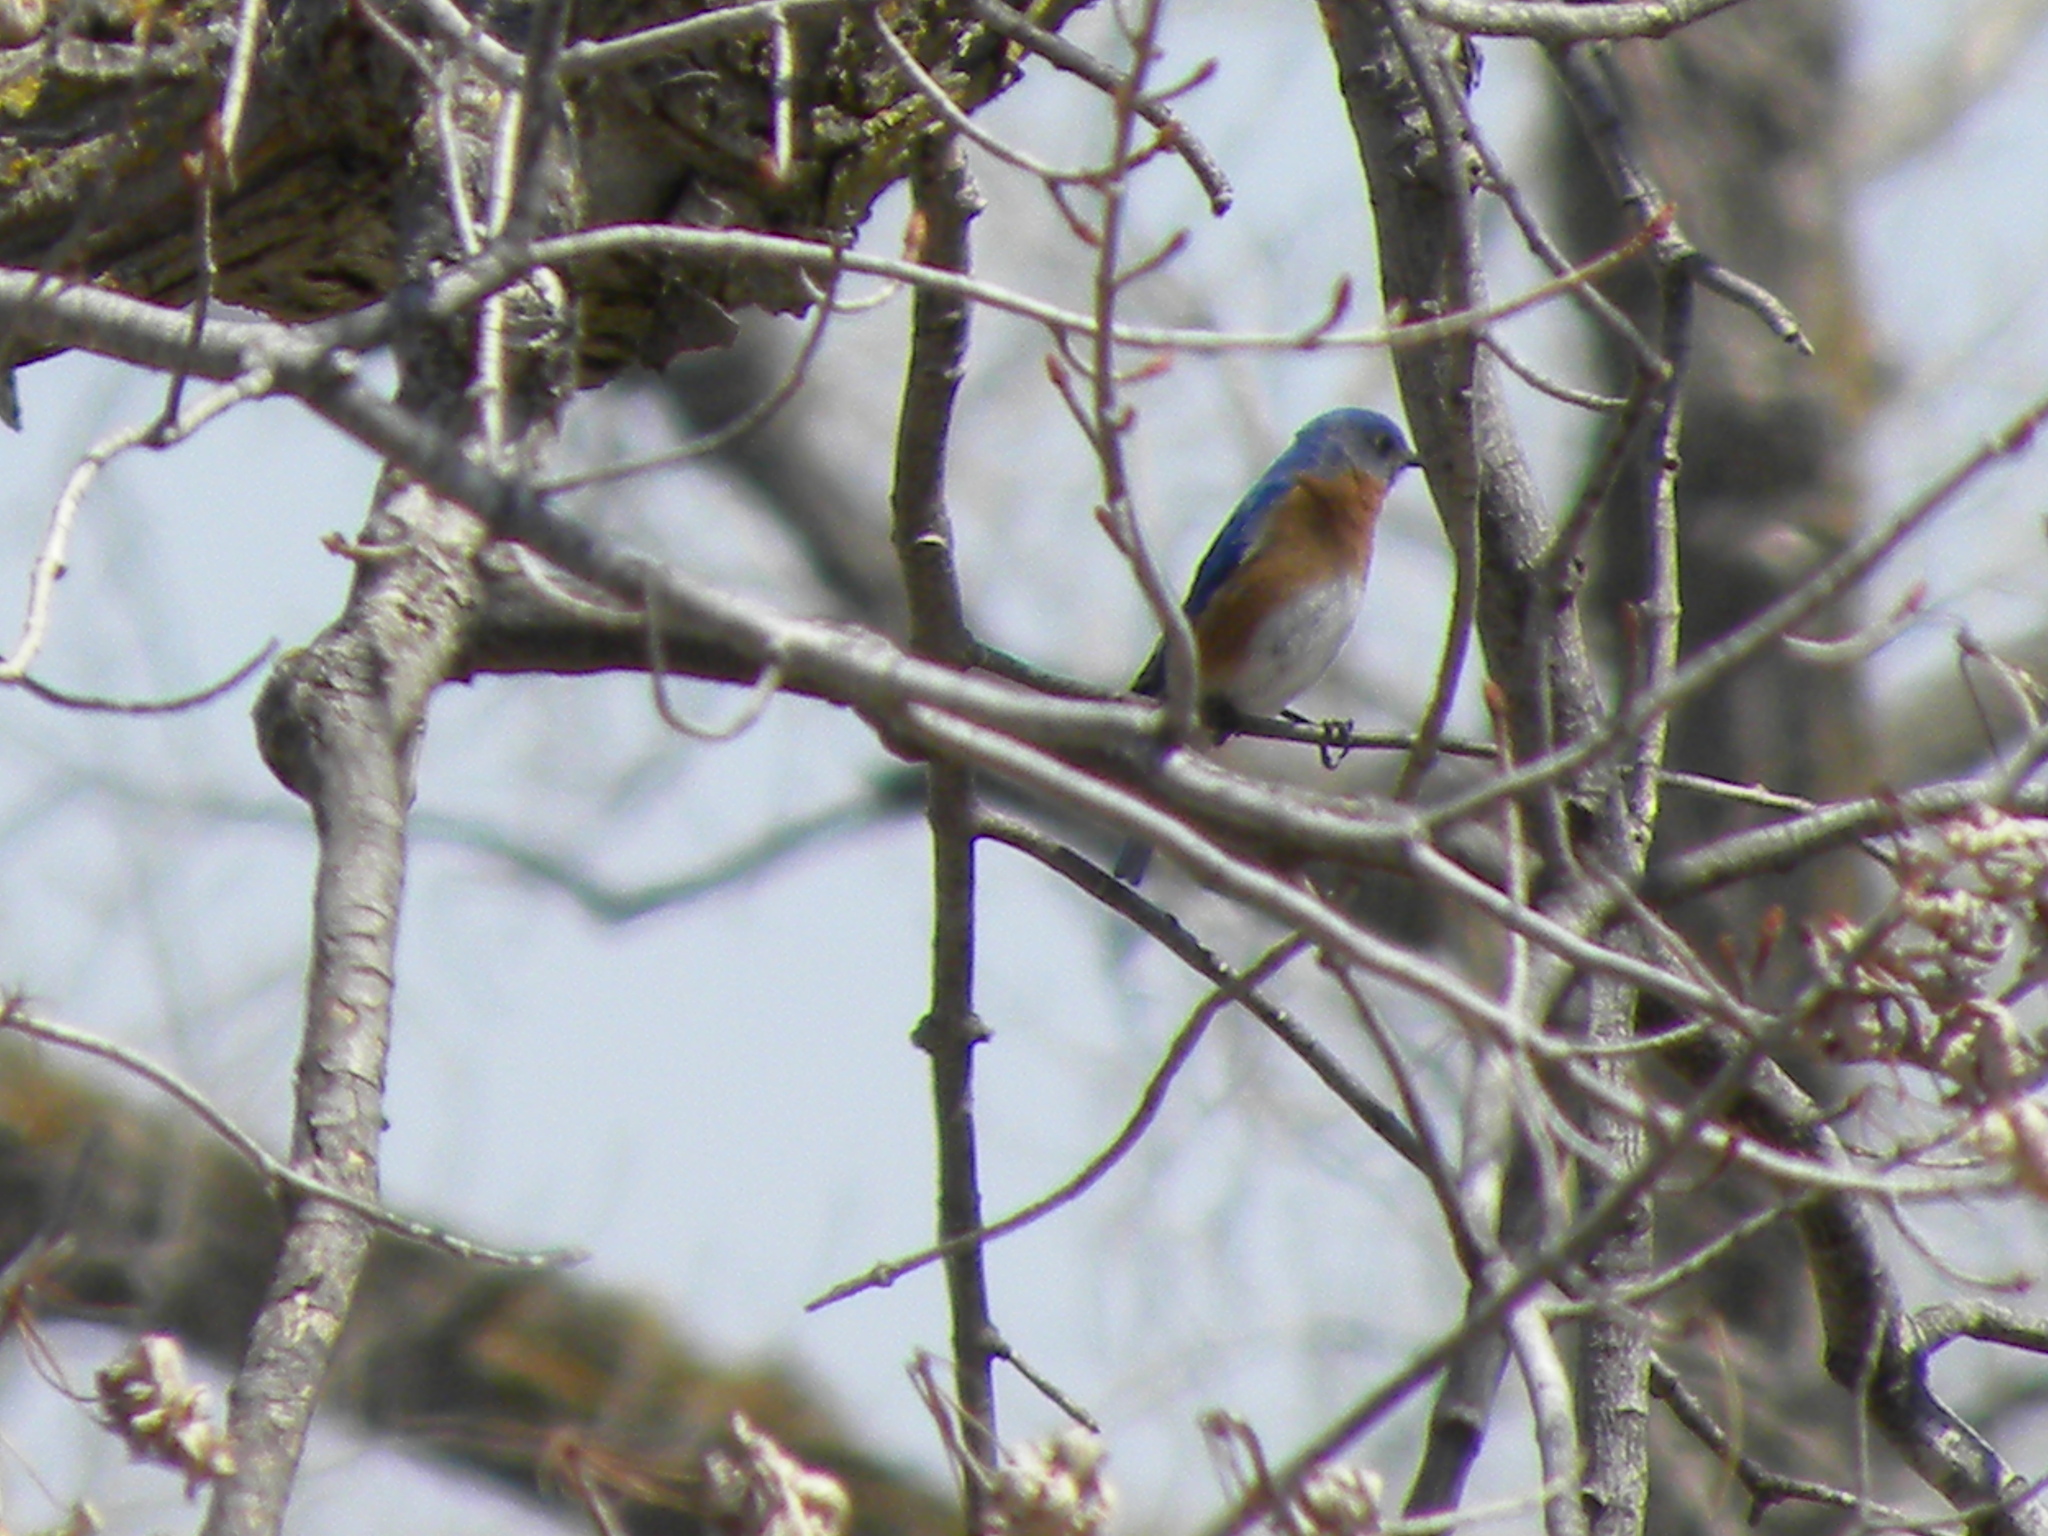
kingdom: Animalia
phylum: Chordata
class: Aves
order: Passeriformes
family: Turdidae
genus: Sialia
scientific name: Sialia sialis
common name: Eastern bluebird
